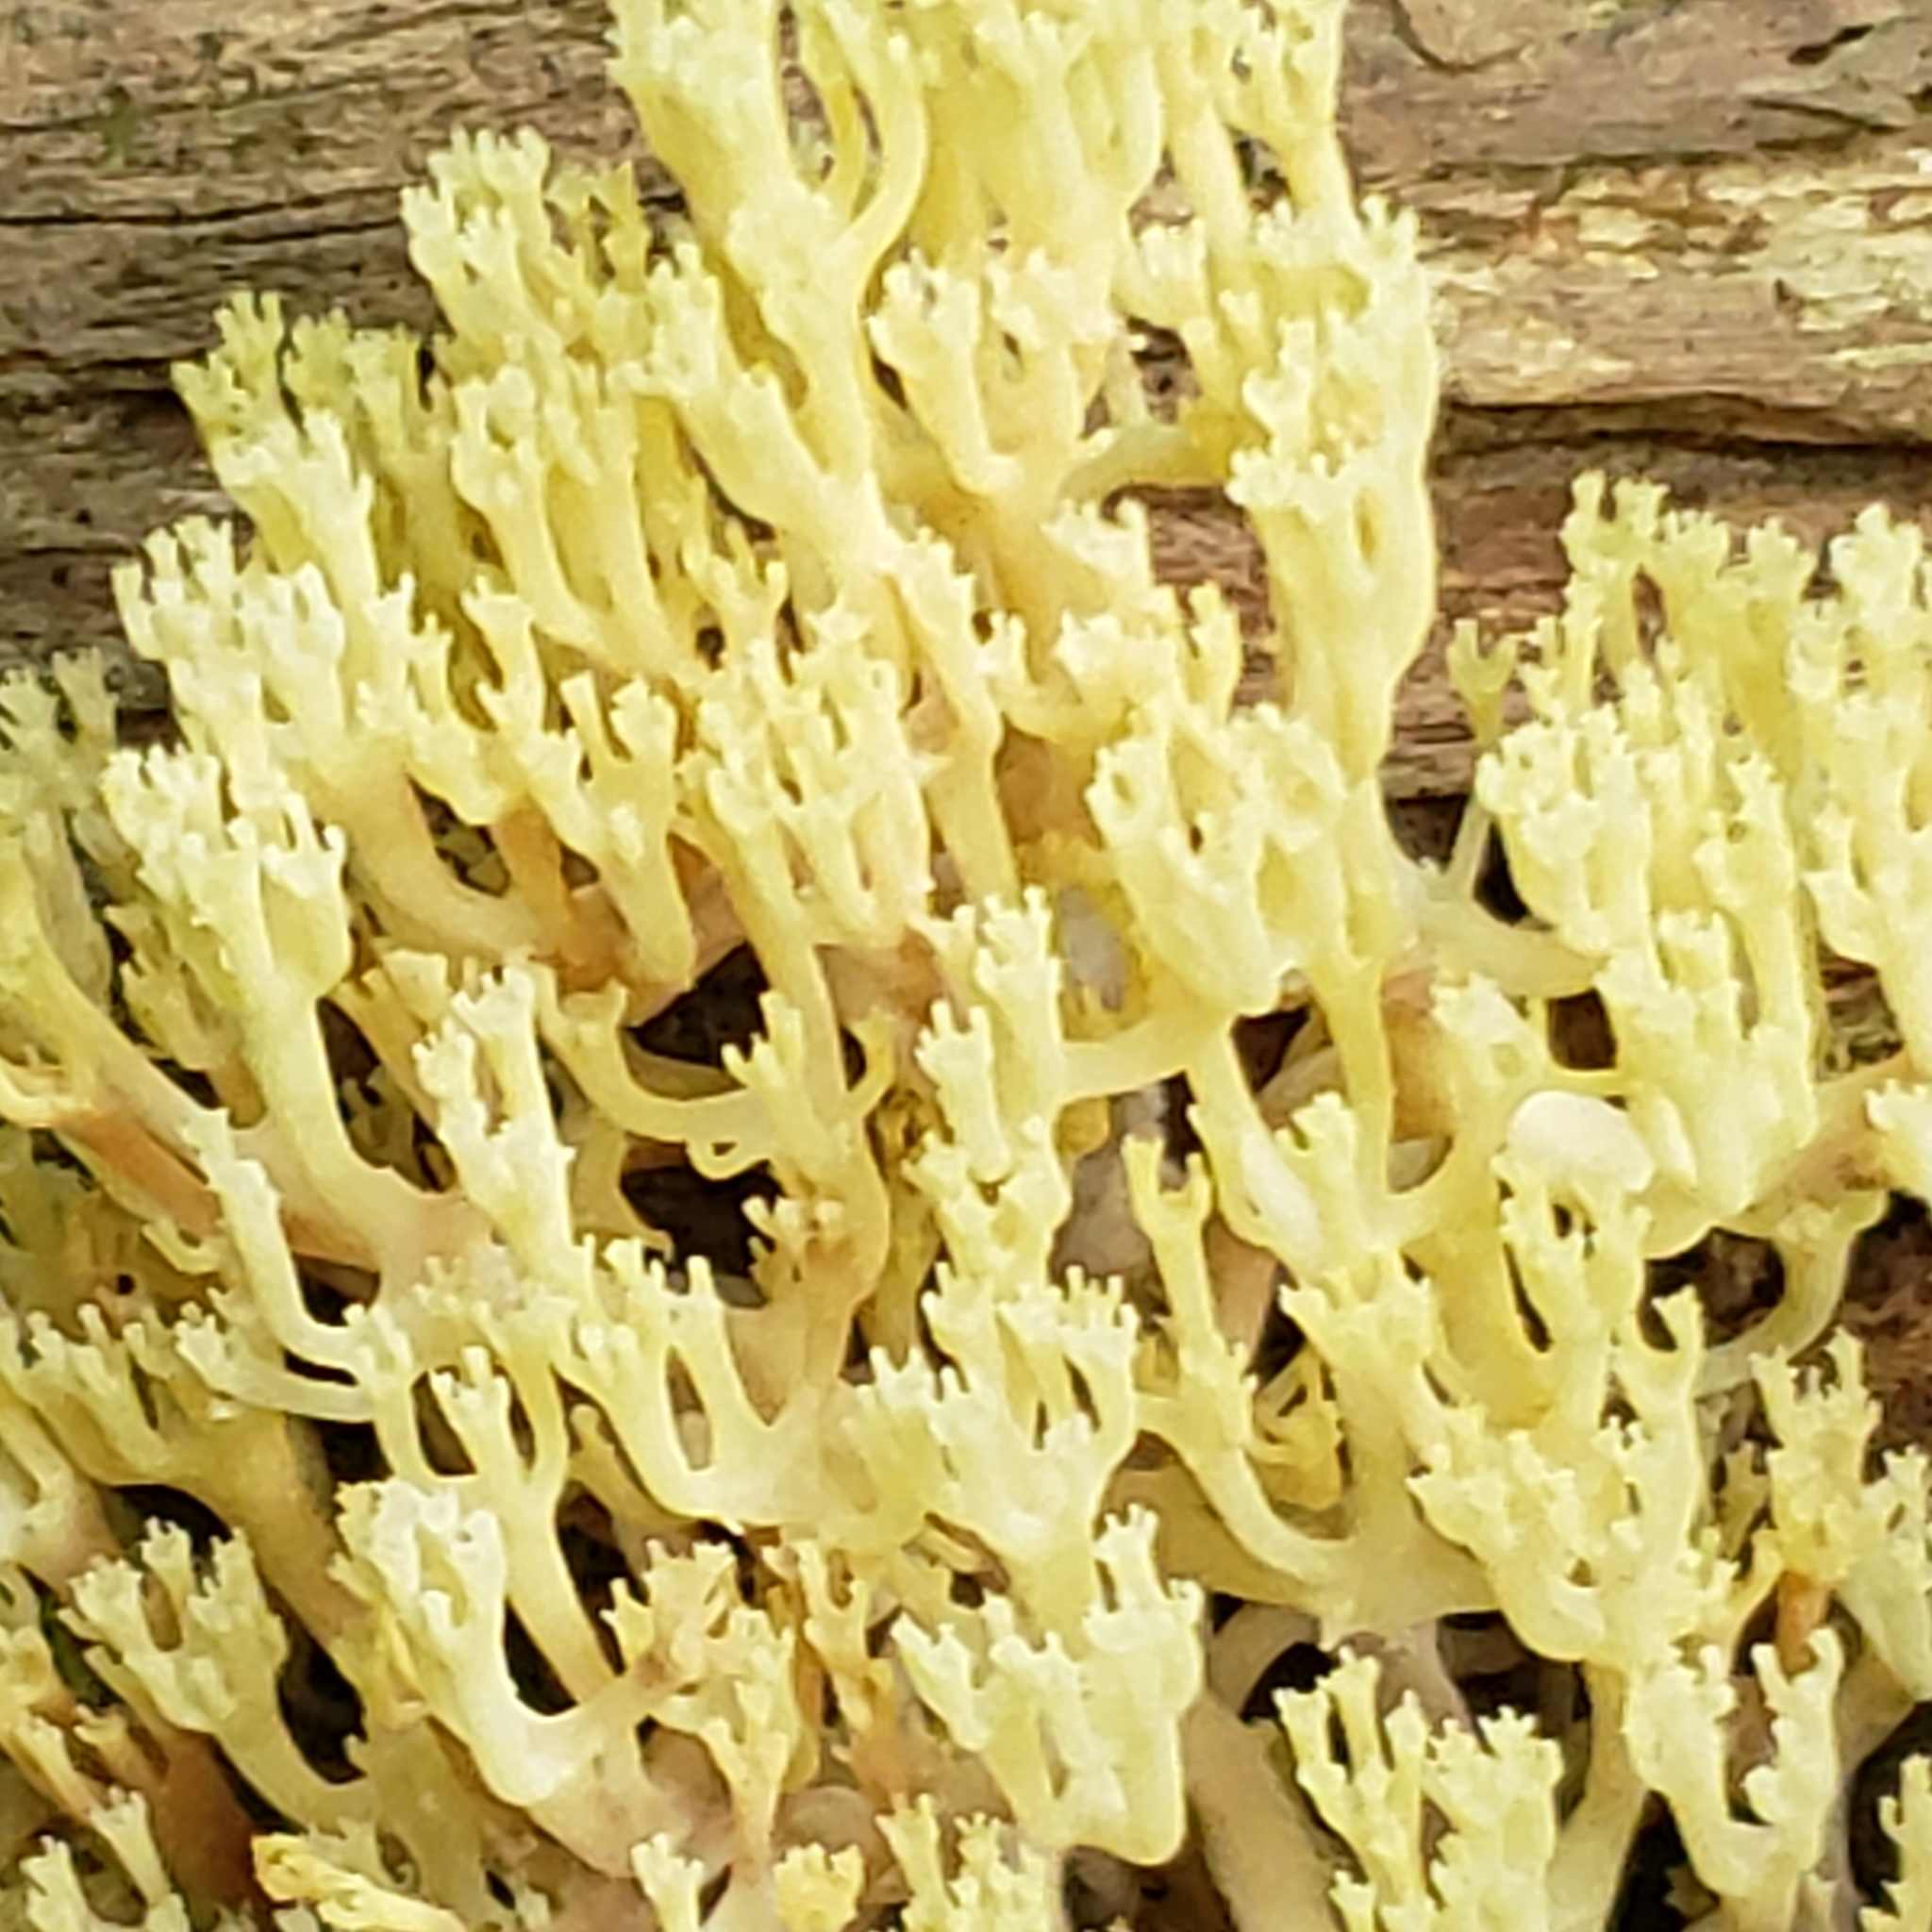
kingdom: Fungi
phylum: Basidiomycota
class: Agaricomycetes
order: Russulales
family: Auriscalpiaceae
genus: Artomyces
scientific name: Artomyces pyxidatus
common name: Crown-tipped coral fungus
